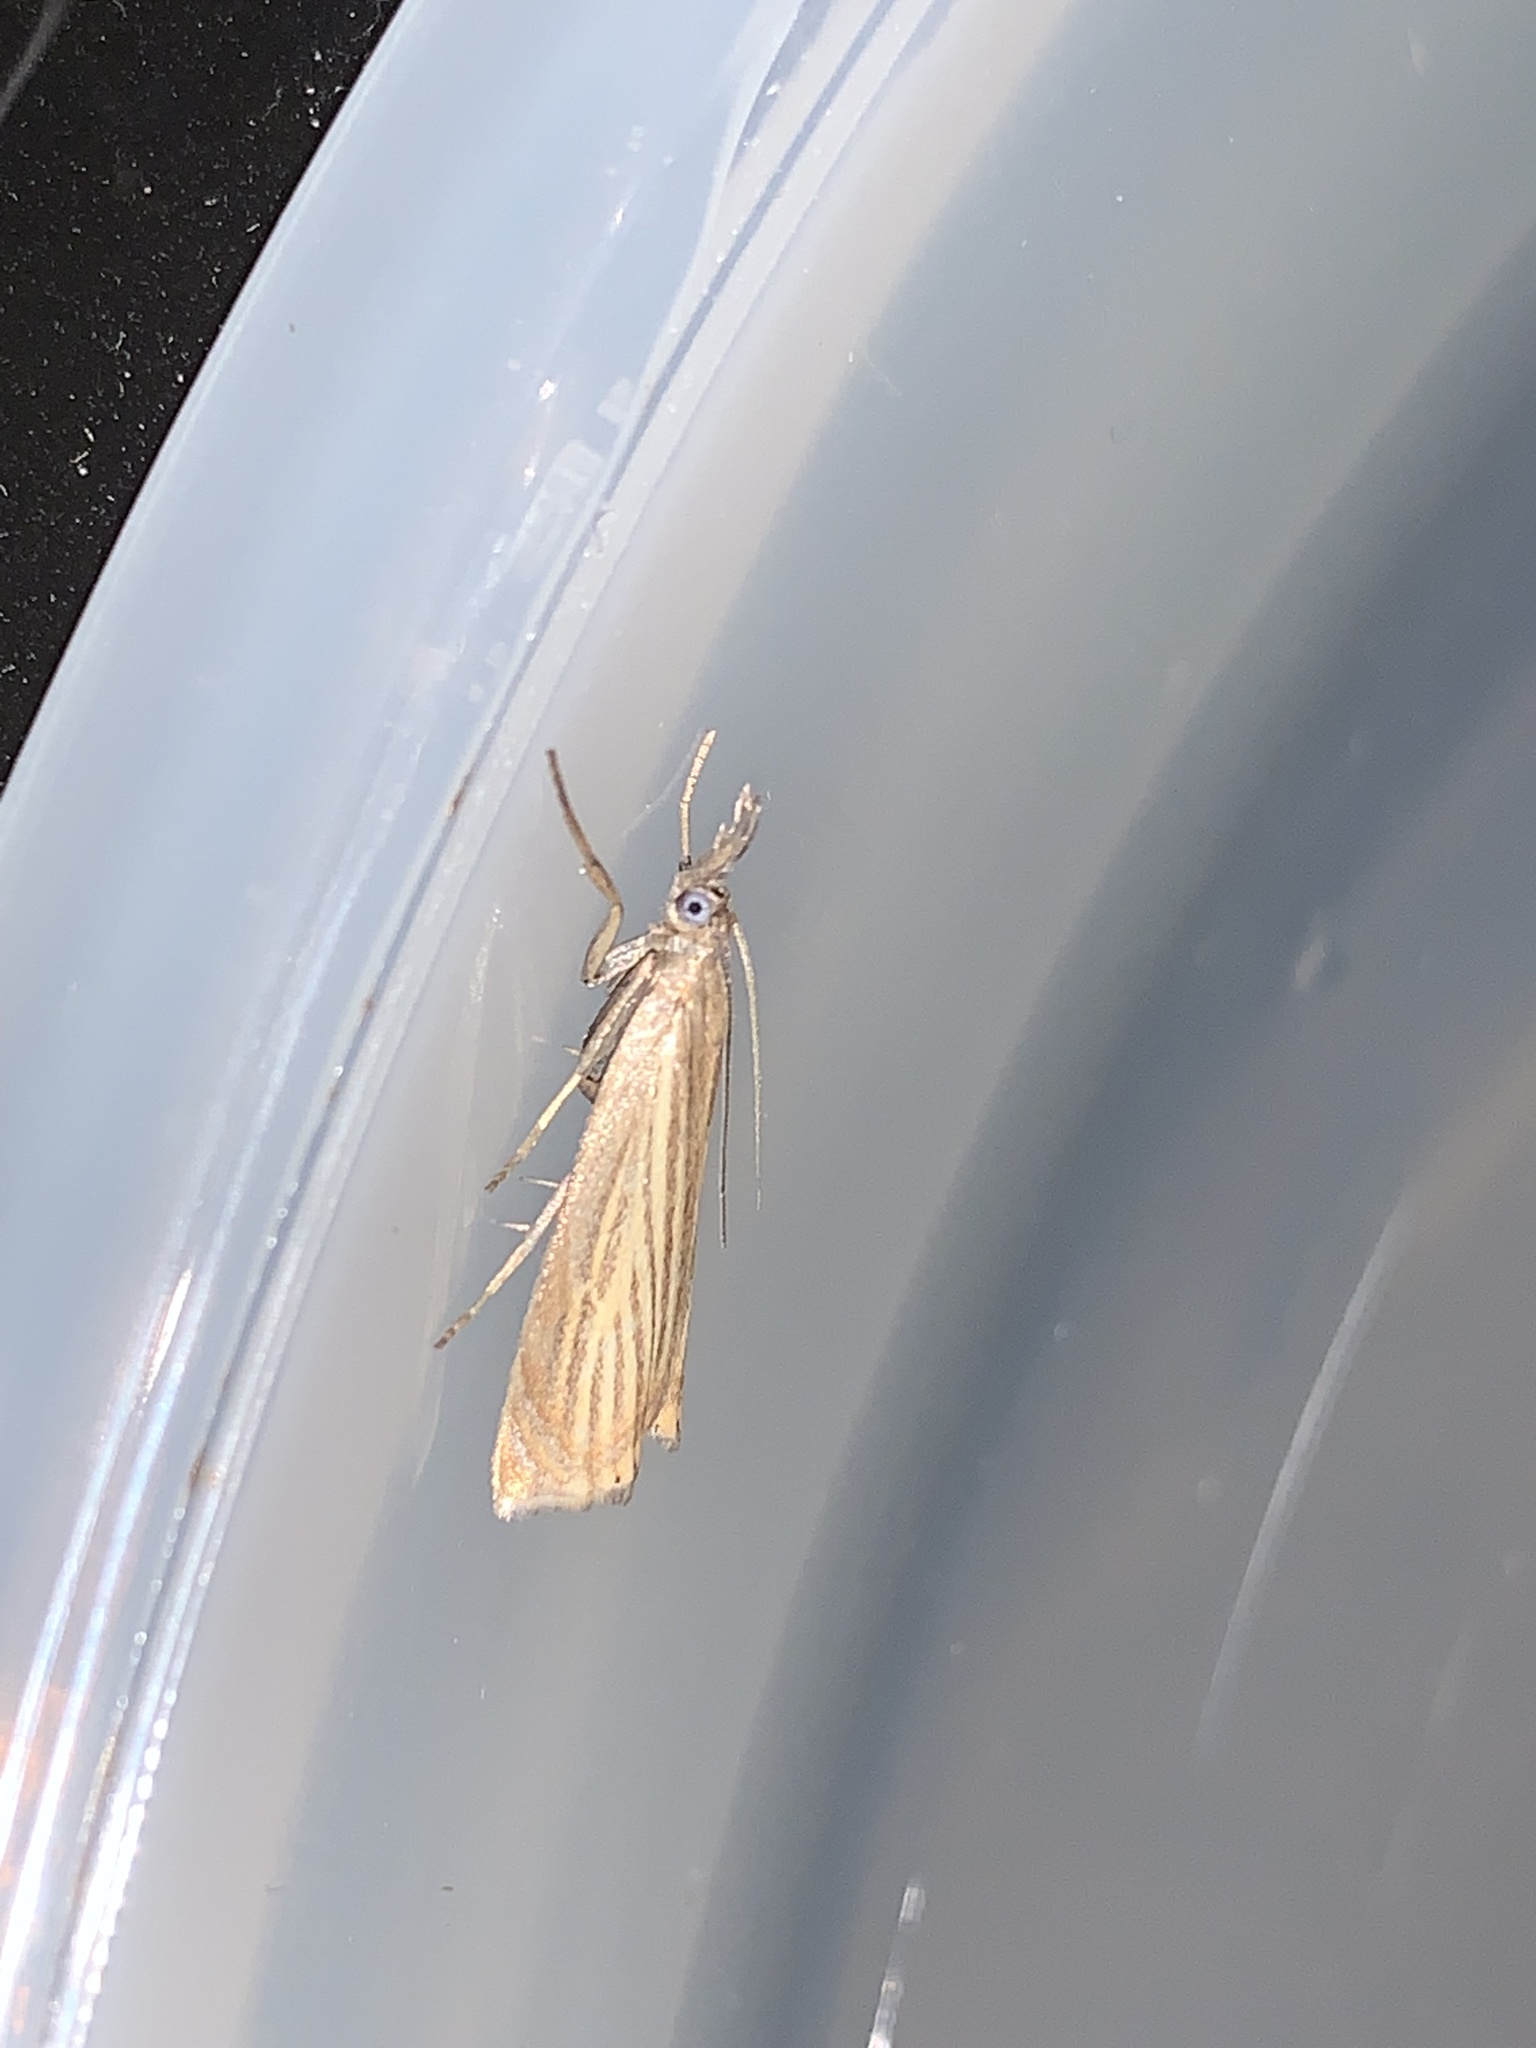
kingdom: Animalia
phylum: Arthropoda
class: Insecta
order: Lepidoptera
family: Crambidae
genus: Chrysoteuchia
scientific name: Chrysoteuchia culmella
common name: Garden grass-veneer
